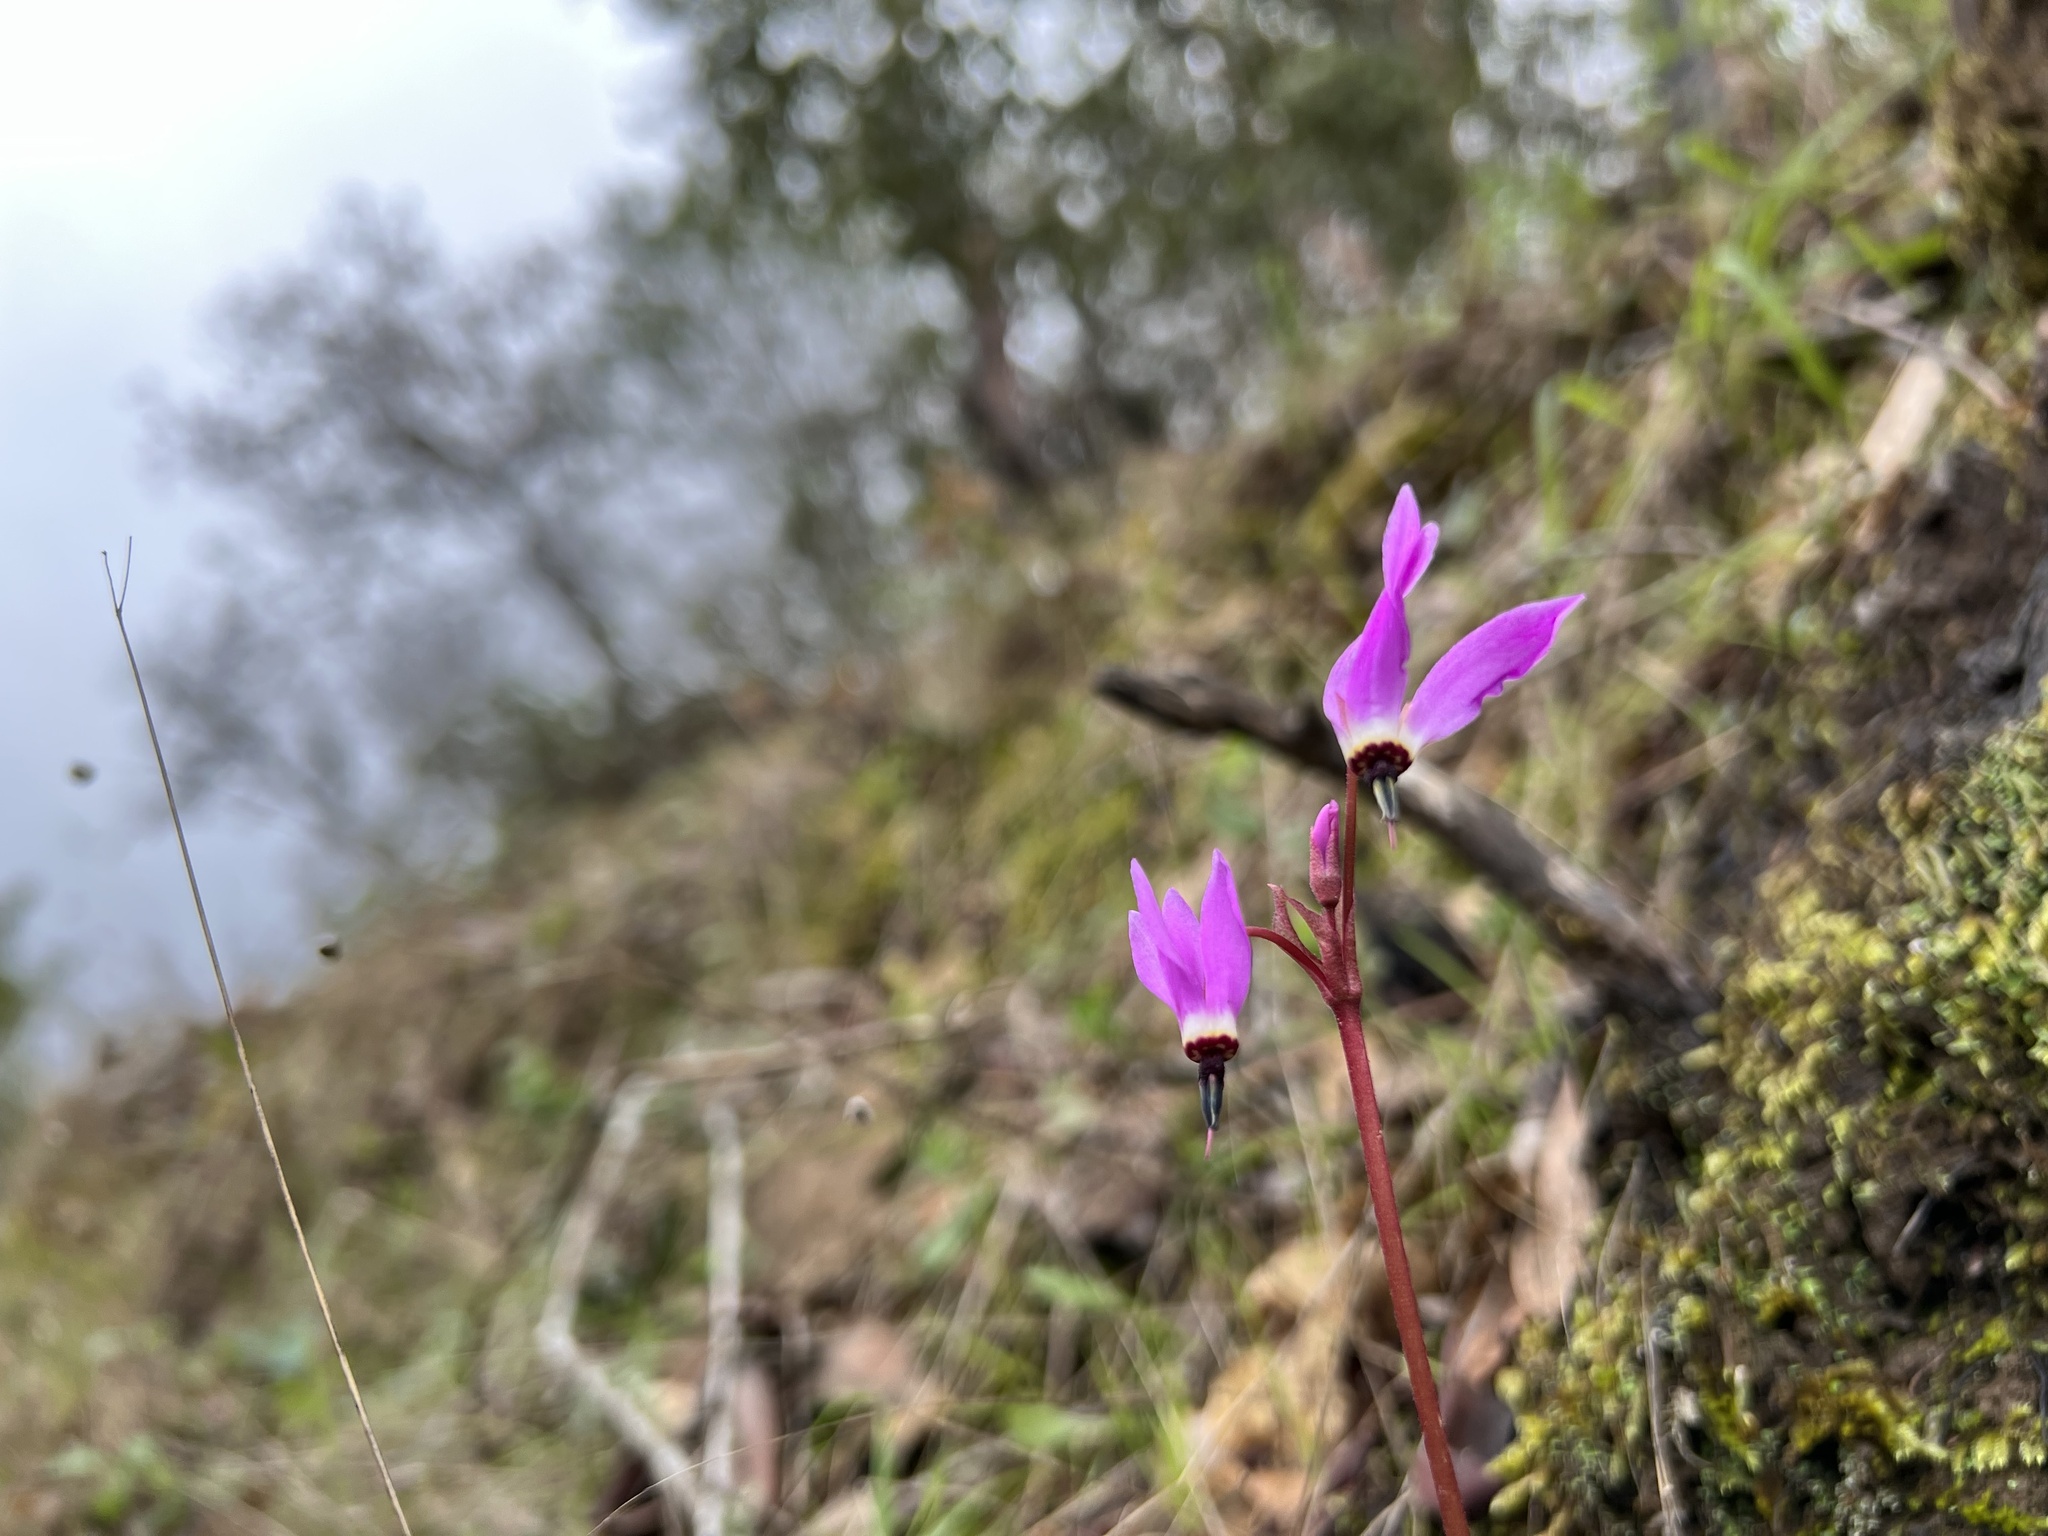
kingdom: Plantae
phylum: Tracheophyta
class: Magnoliopsida
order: Ericales
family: Primulaceae
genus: Dodecatheon
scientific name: Dodecatheon hendersonii
